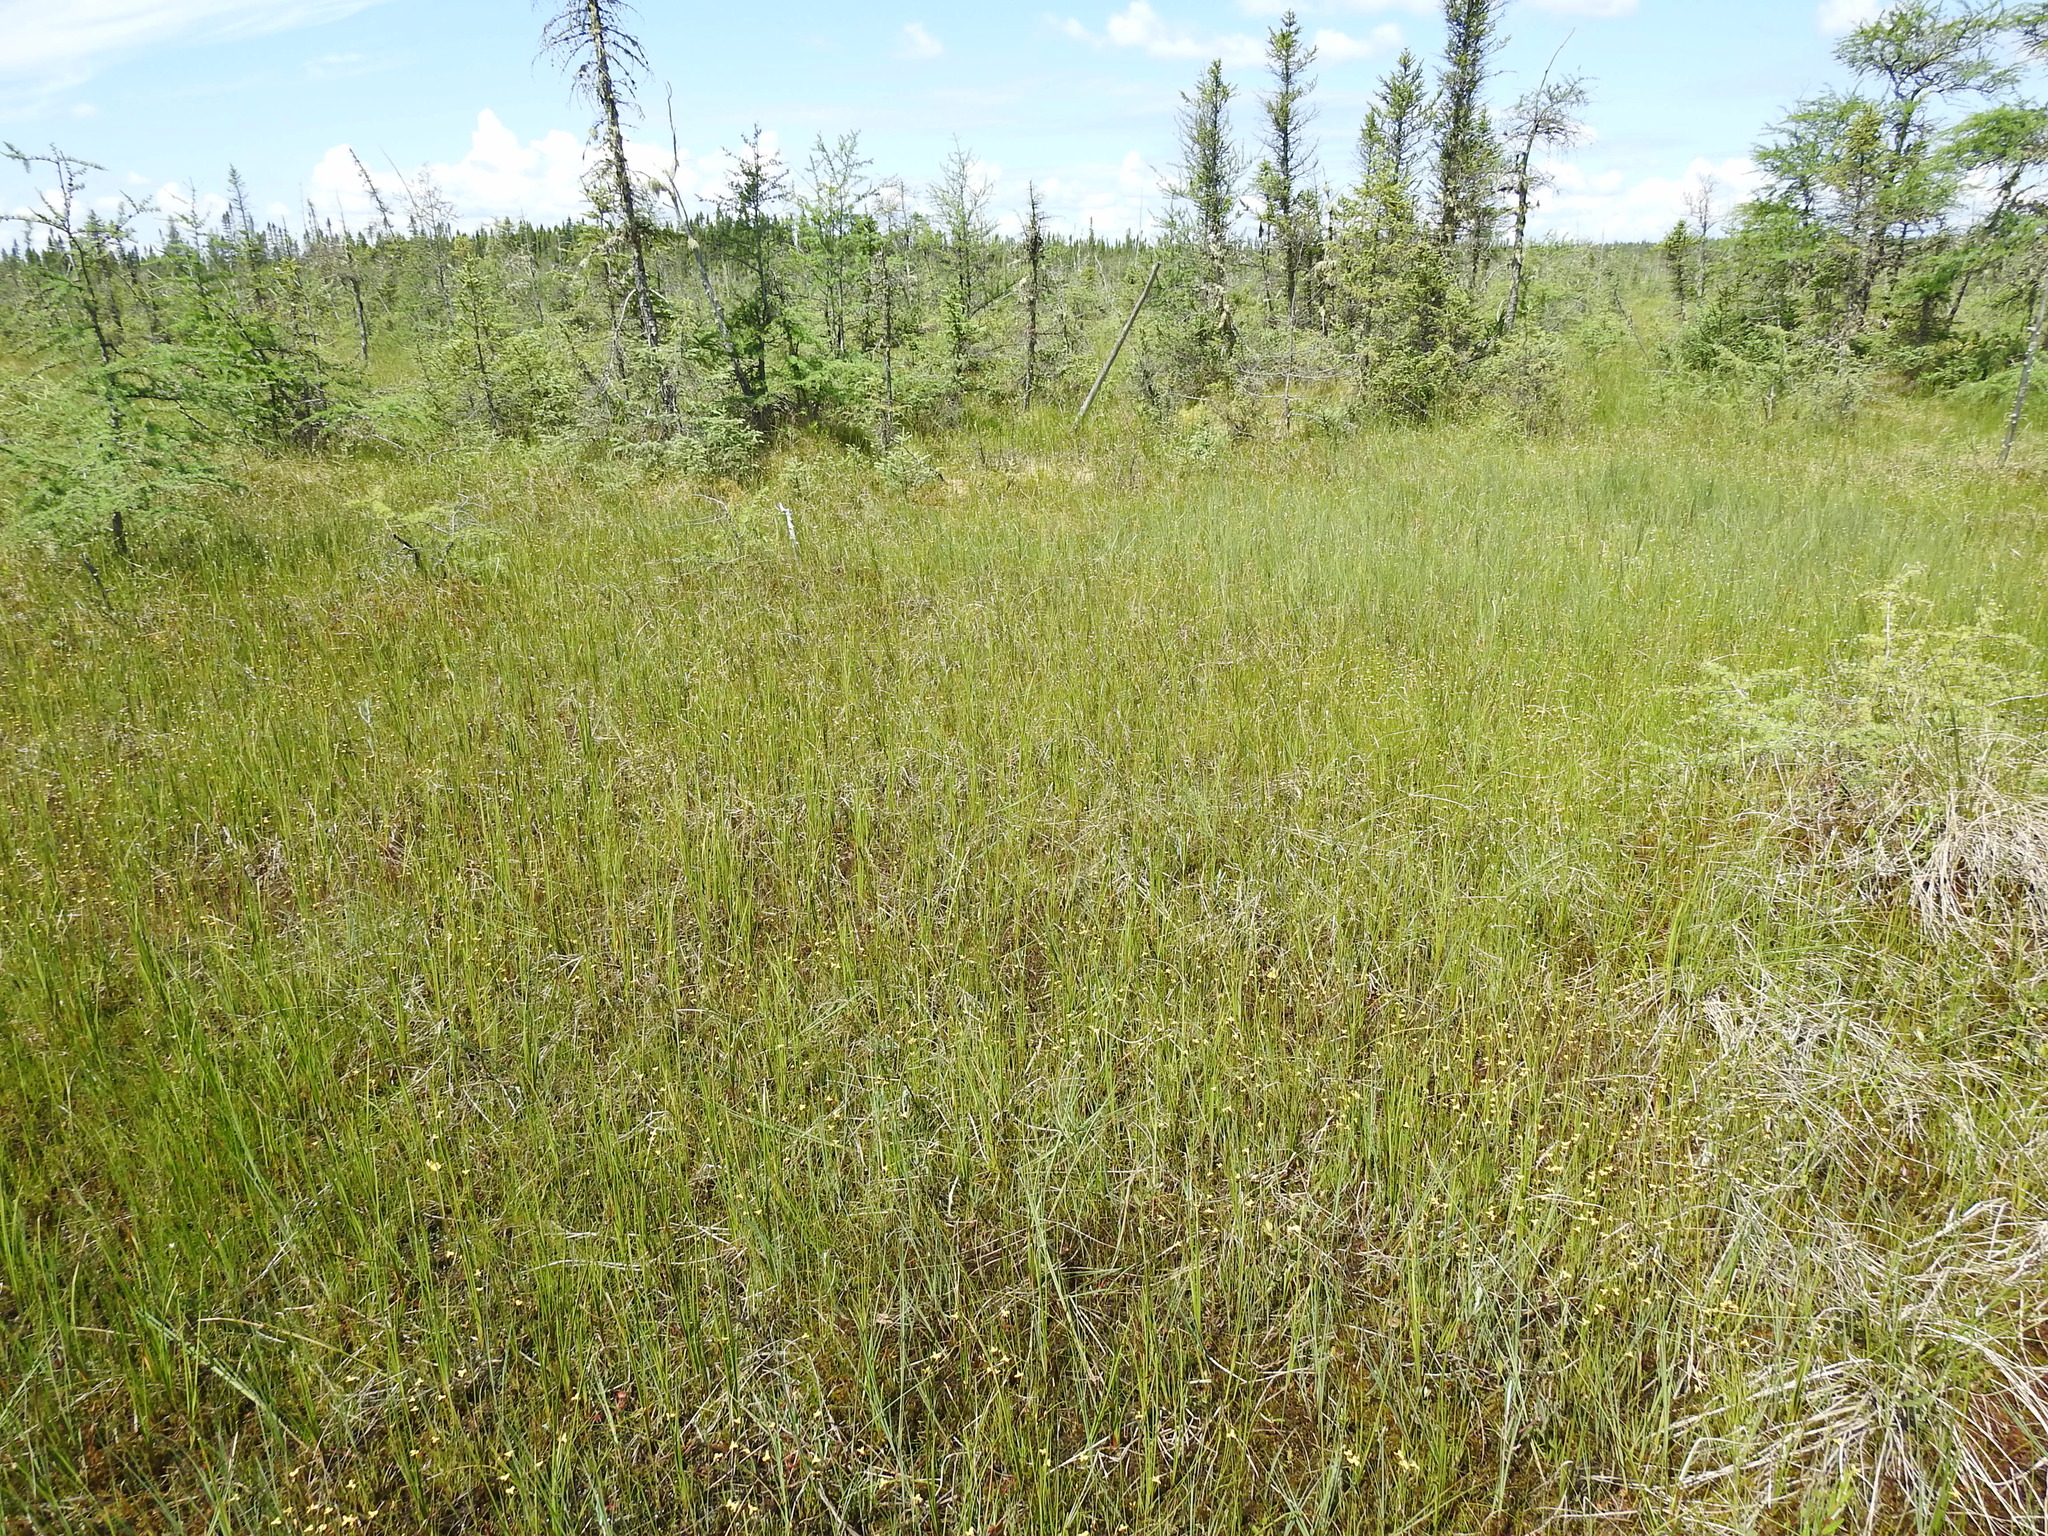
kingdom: Plantae
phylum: Tracheophyta
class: Liliopsida
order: Poales
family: Xyridaceae
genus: Xyris
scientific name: Xyris montana
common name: Northern yellow-eyed-grass
